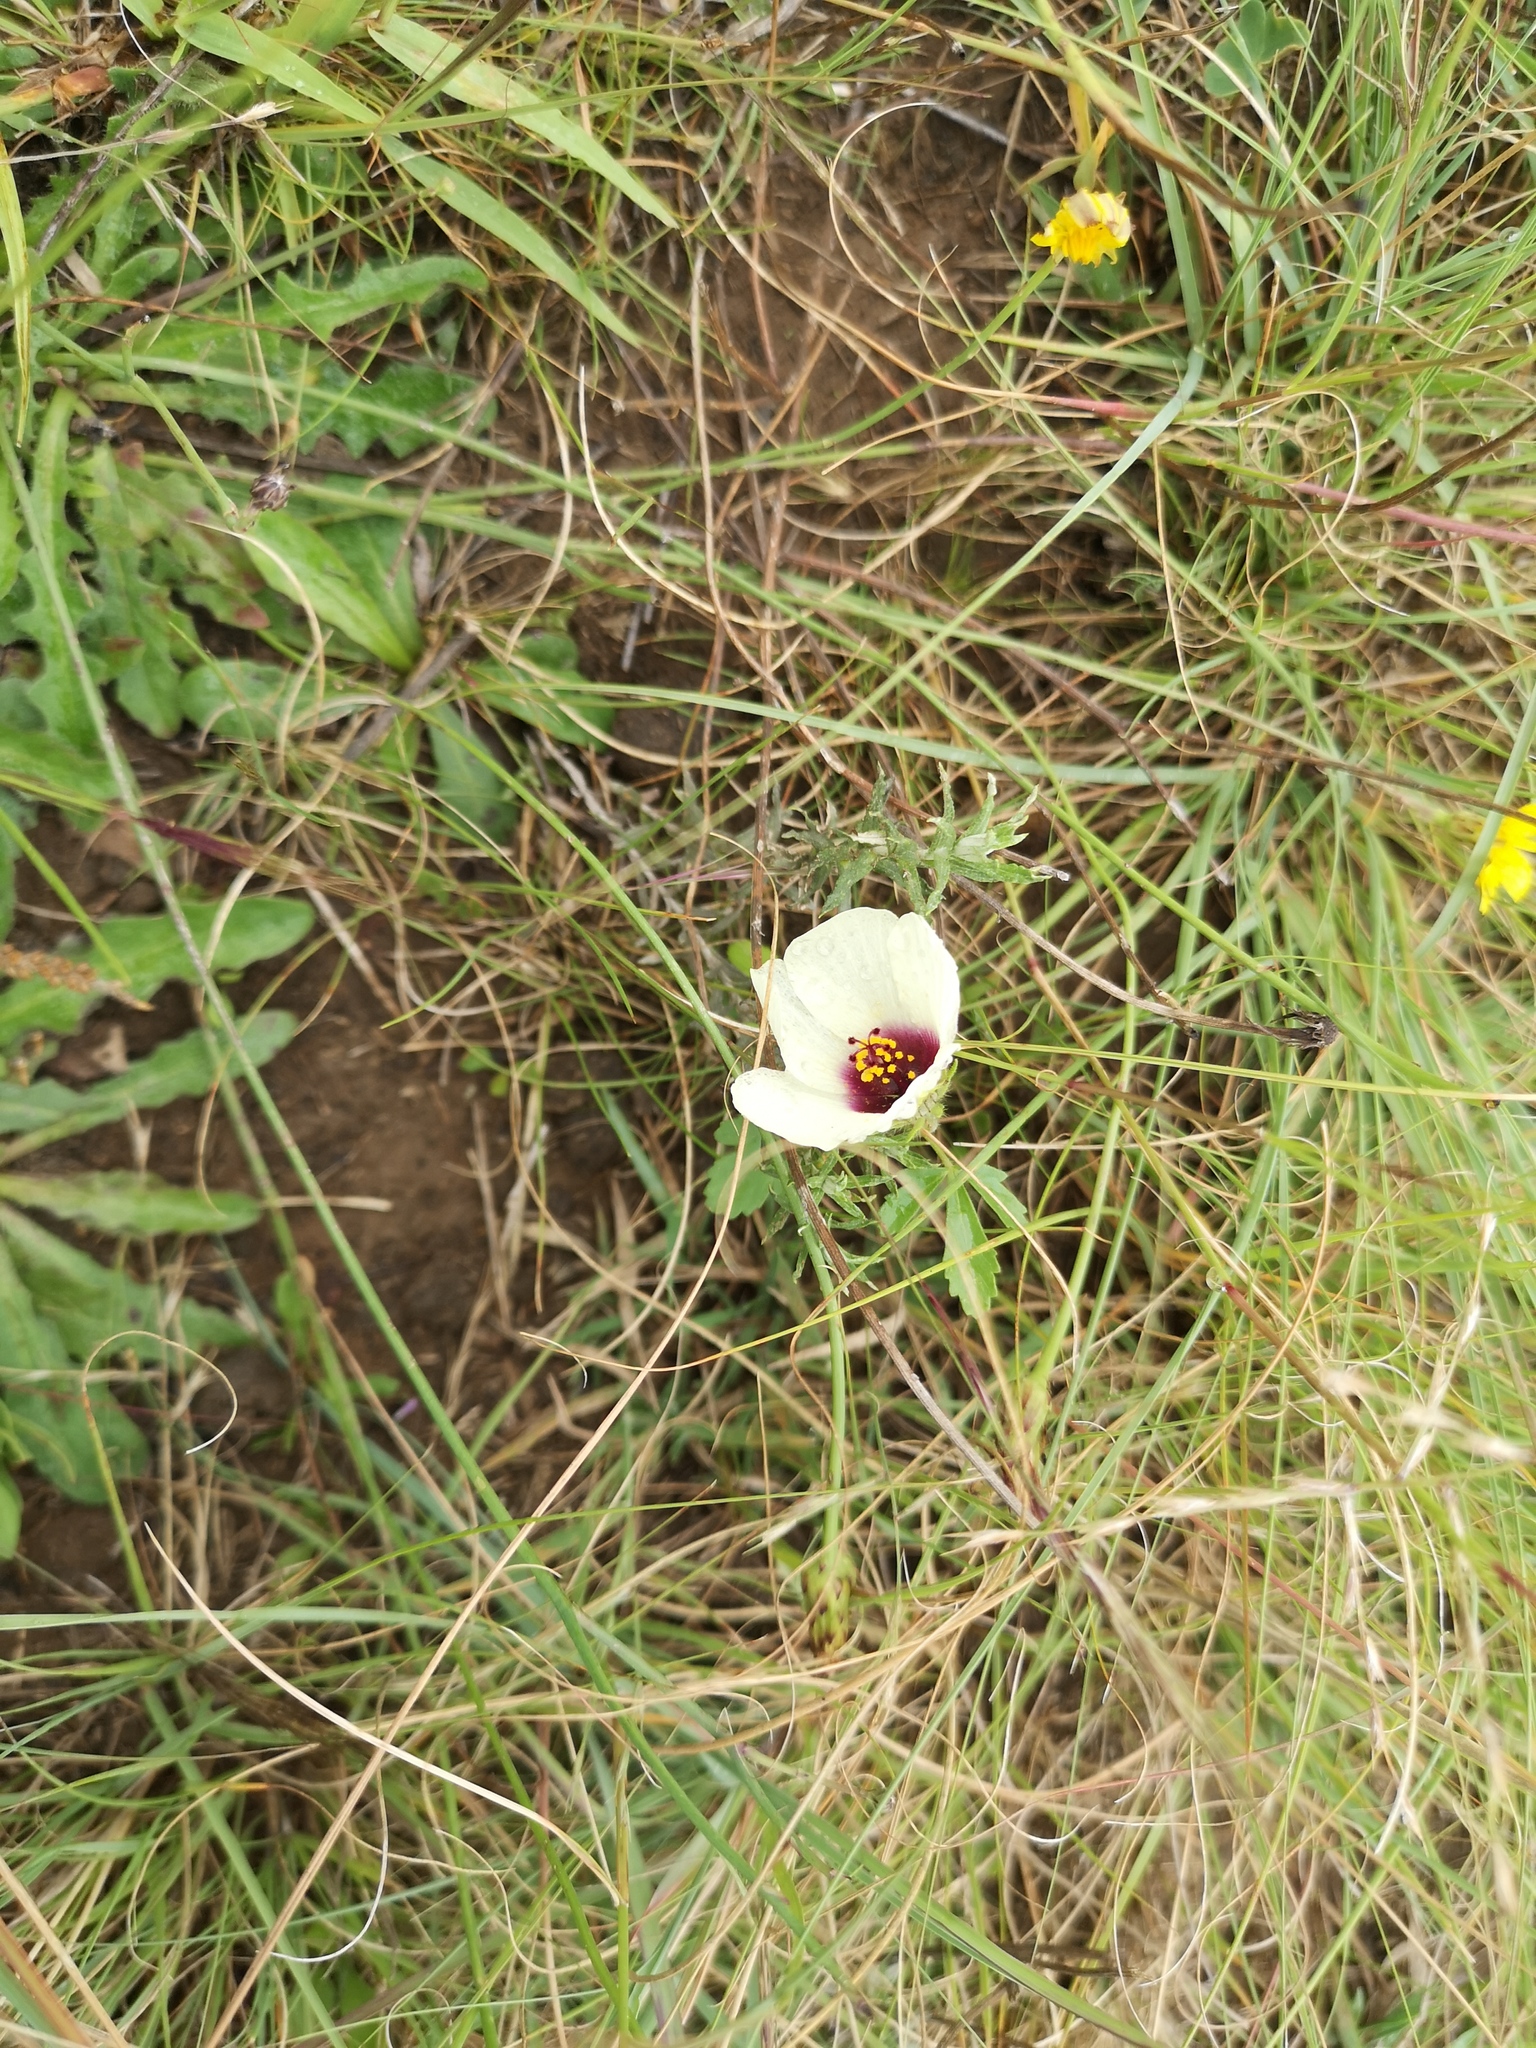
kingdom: Plantae
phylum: Tracheophyta
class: Magnoliopsida
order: Malvales
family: Malvaceae
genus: Hibiscus
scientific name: Hibiscus trionum
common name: Bladder ketmia
